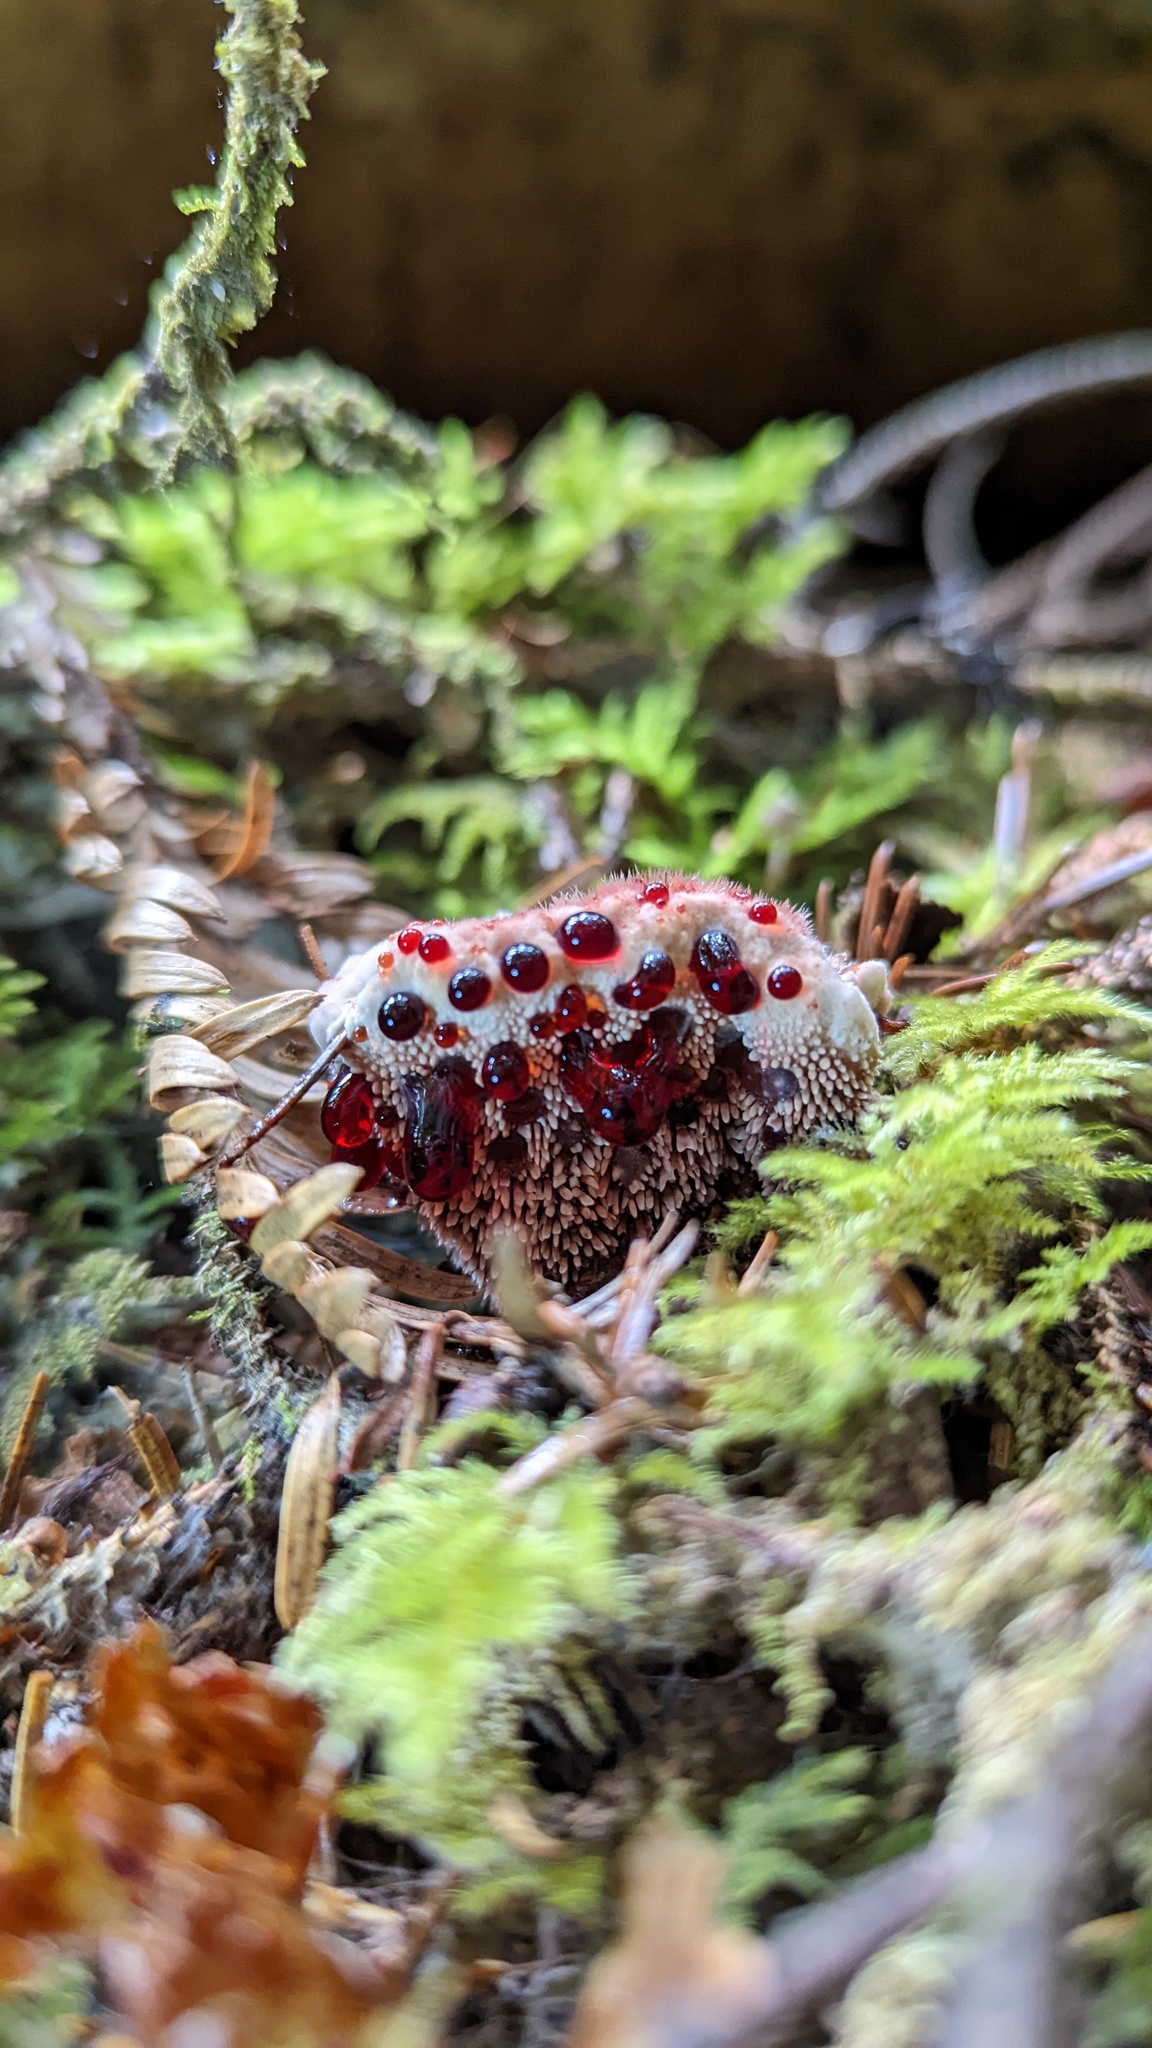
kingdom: Fungi
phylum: Basidiomycota
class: Agaricomycetes
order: Thelephorales
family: Bankeraceae
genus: Hydnellum
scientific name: Hydnellum peckii
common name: Devil's tooth
